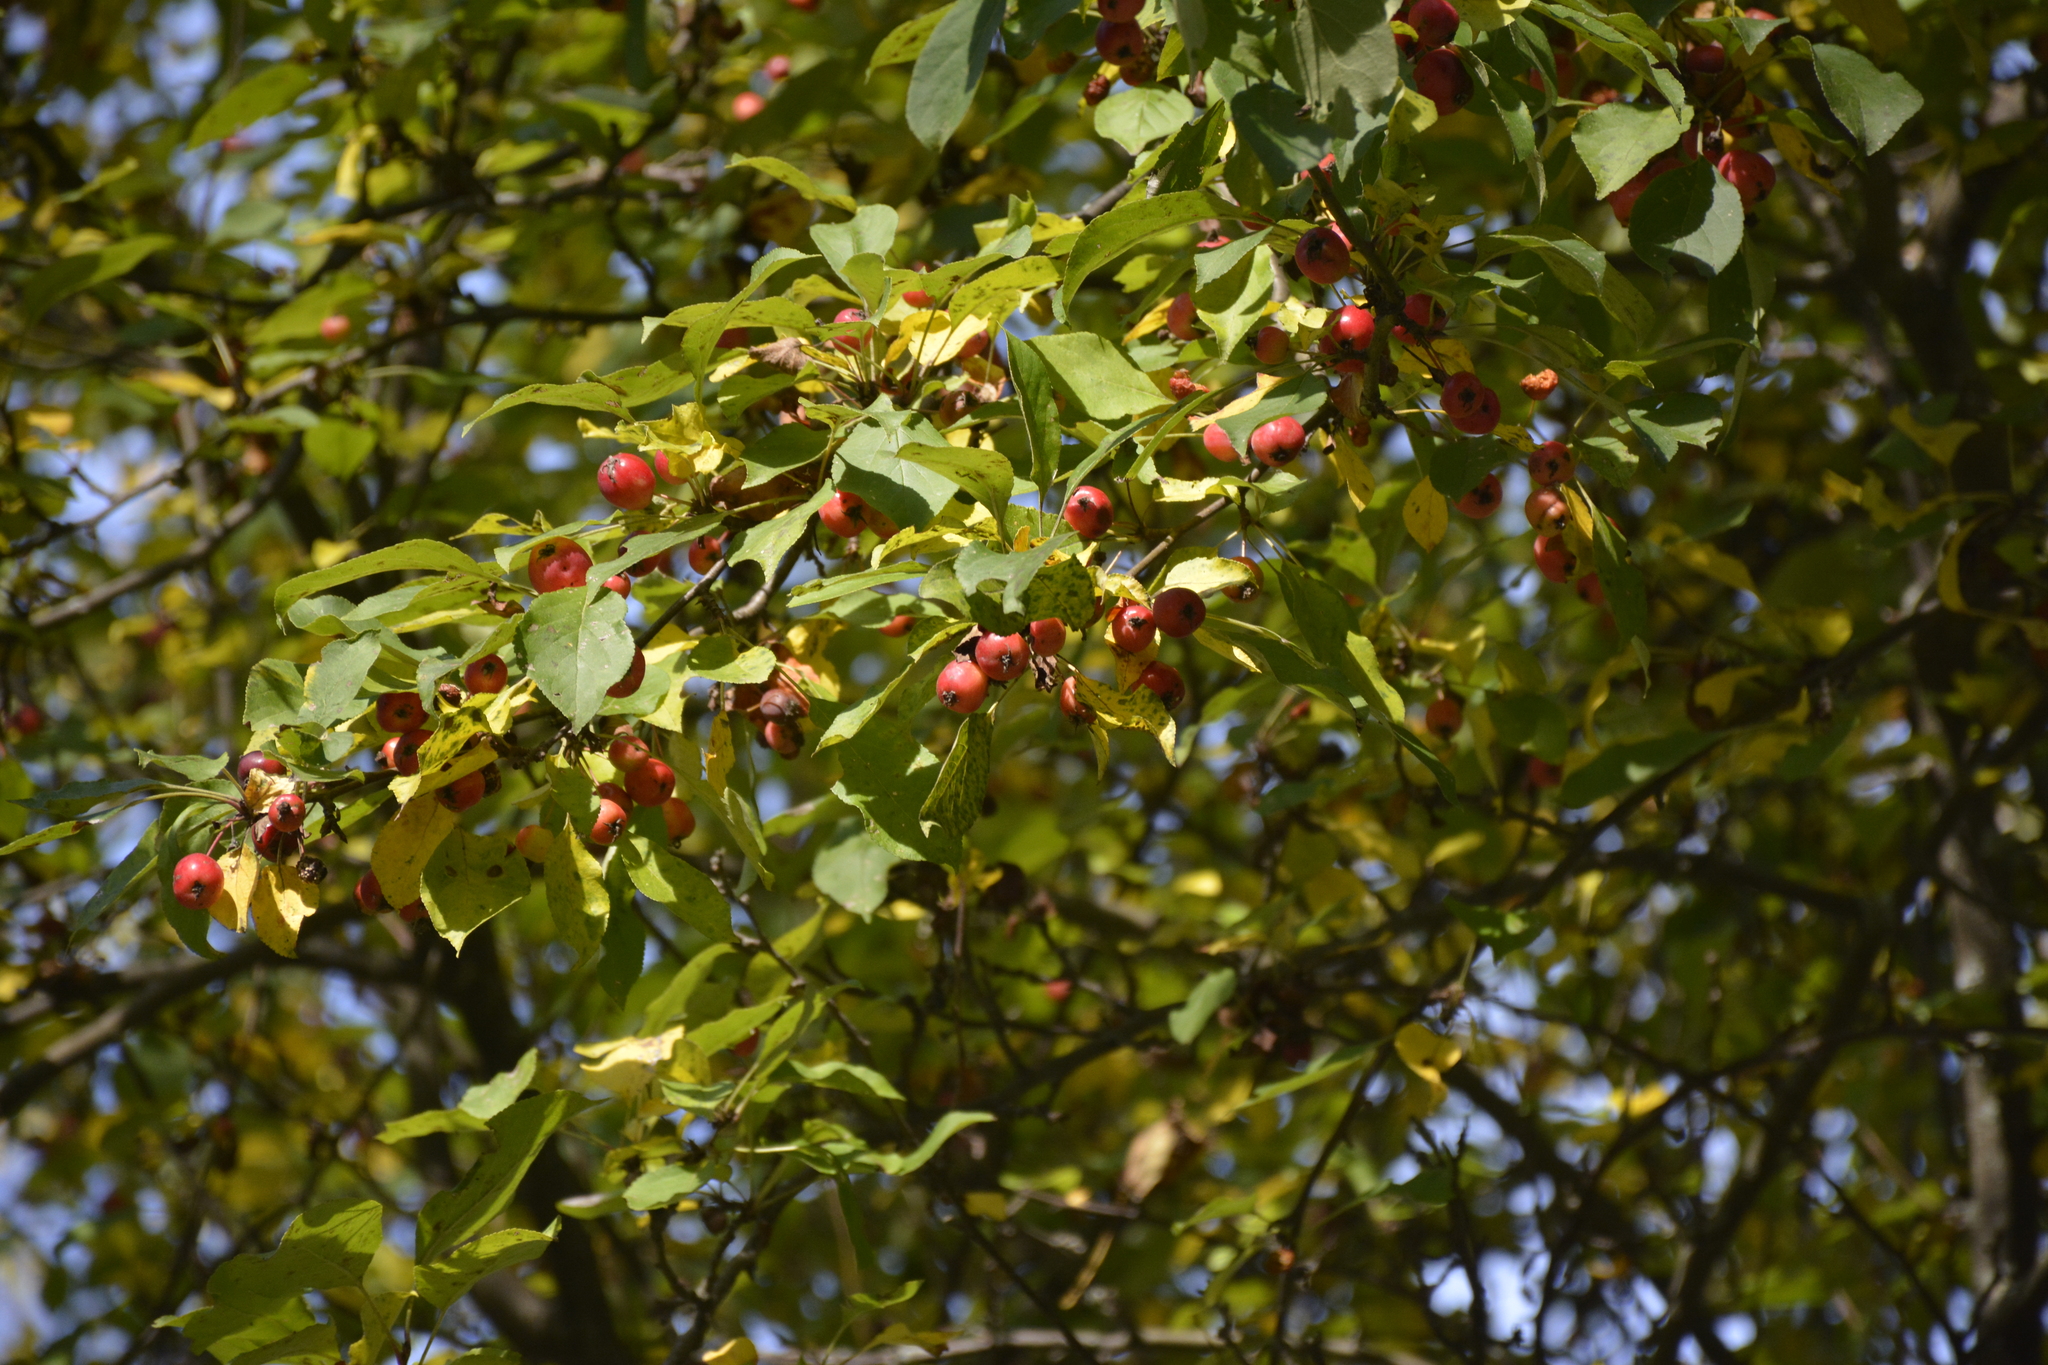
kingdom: Plantae
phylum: Tracheophyta
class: Magnoliopsida
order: Rosales
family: Rosaceae
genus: Malus
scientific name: Malus prunifolia
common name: Chinese apple
